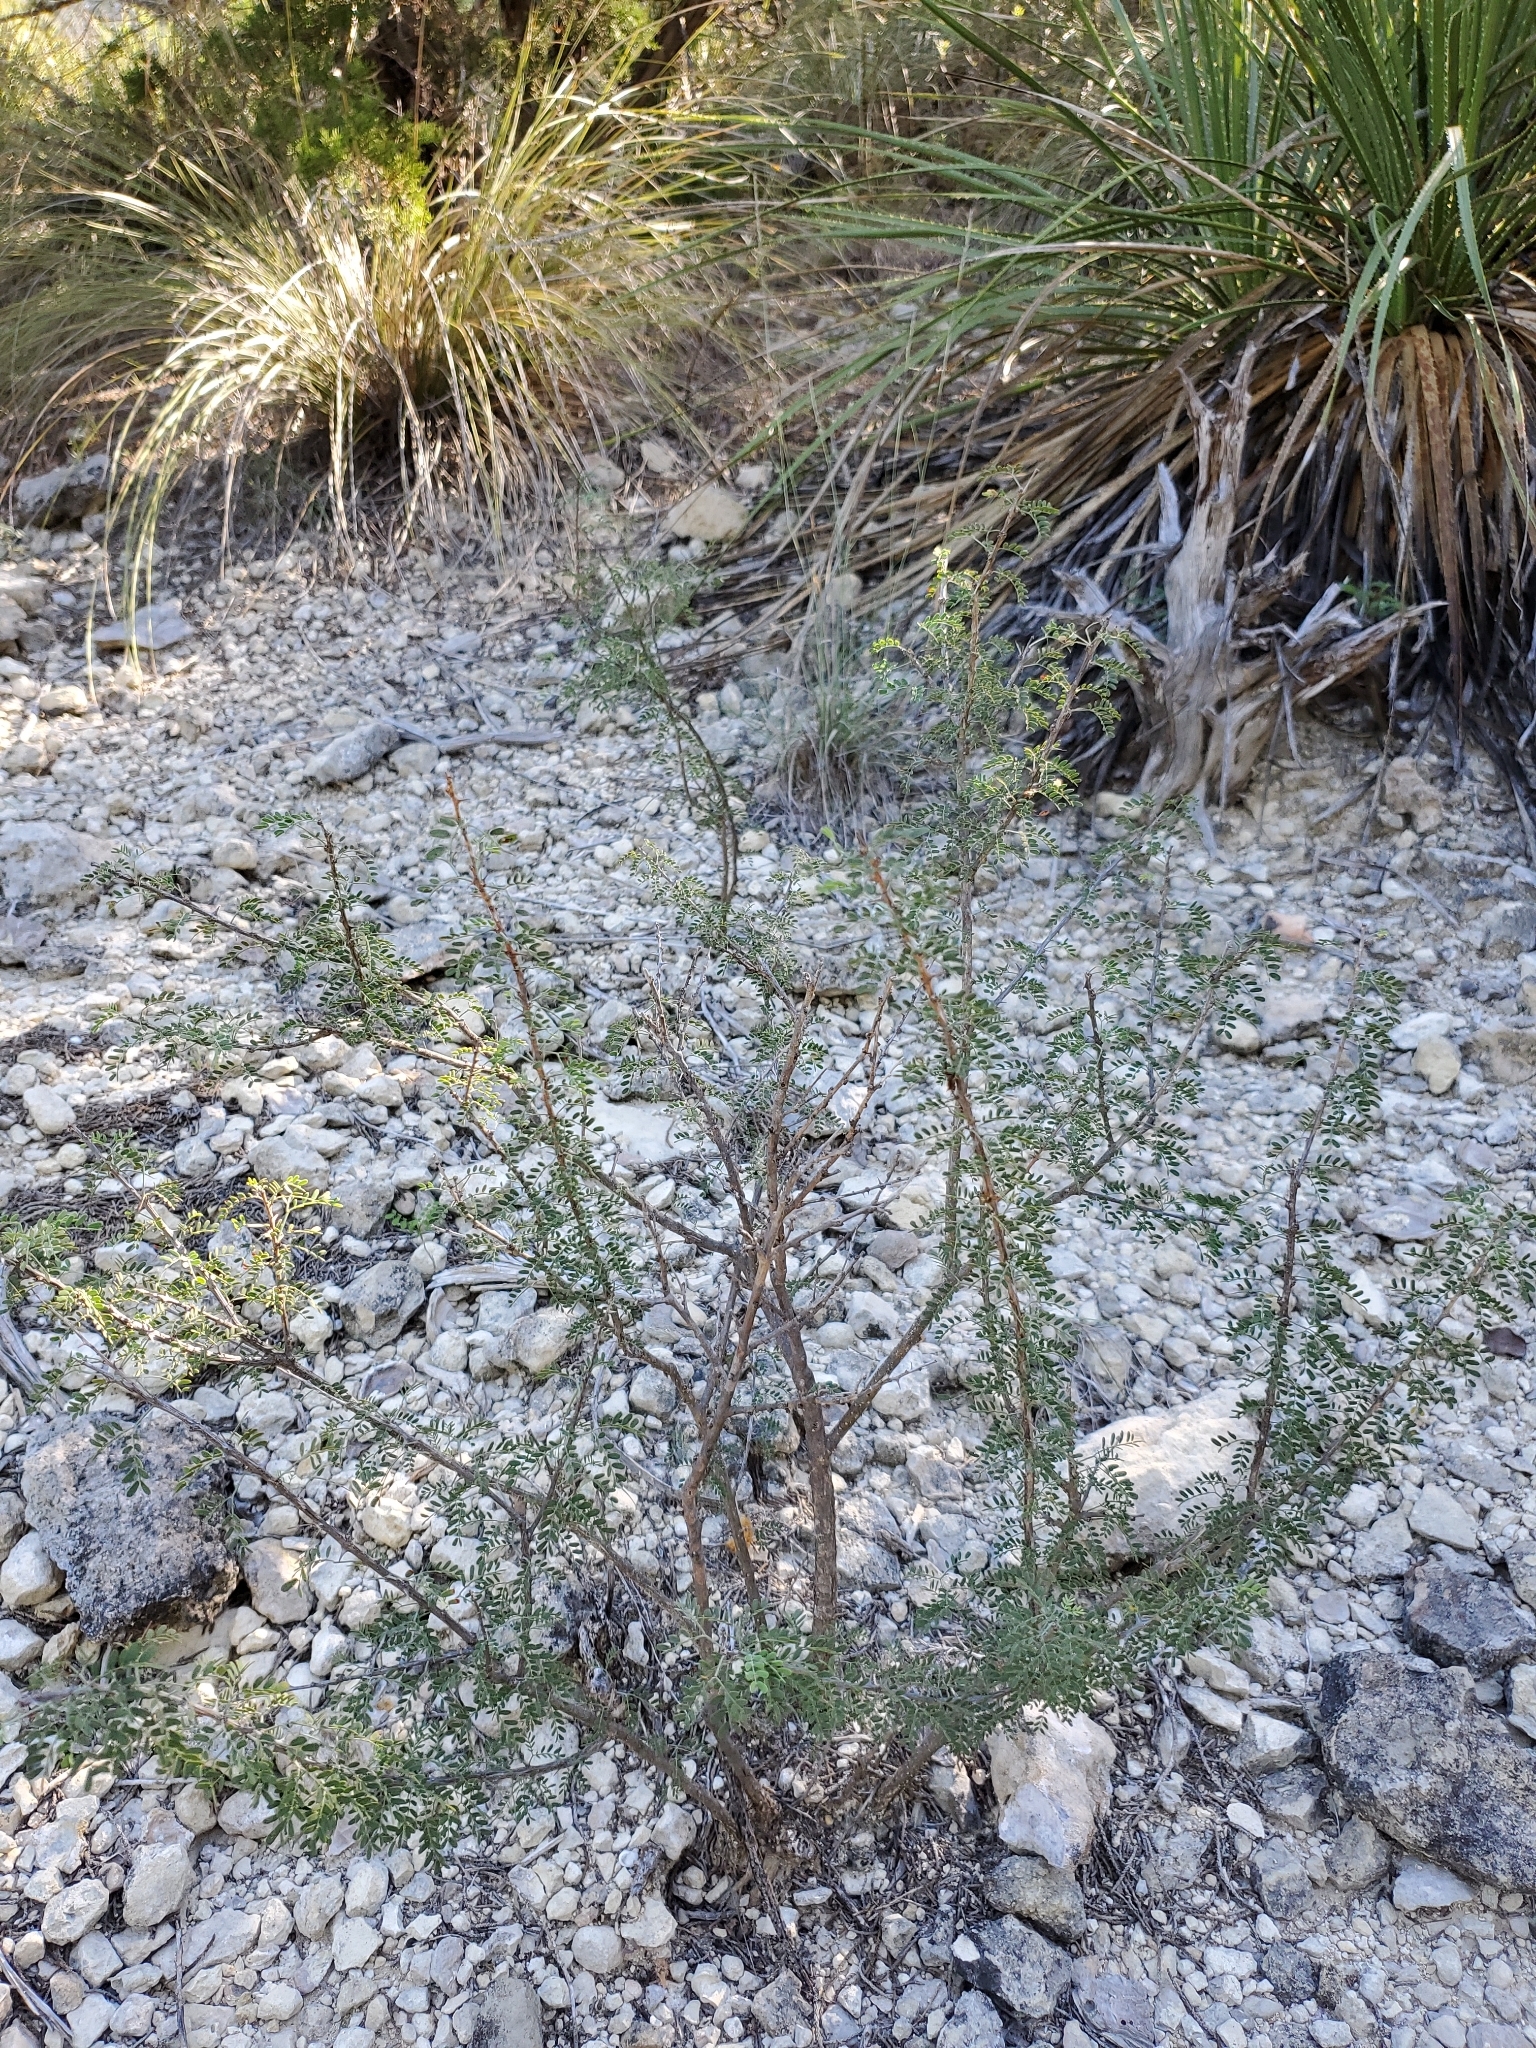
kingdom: Plantae
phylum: Tracheophyta
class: Magnoliopsida
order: Fabales
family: Fabaceae
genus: Mimosa
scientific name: Mimosa borealis
